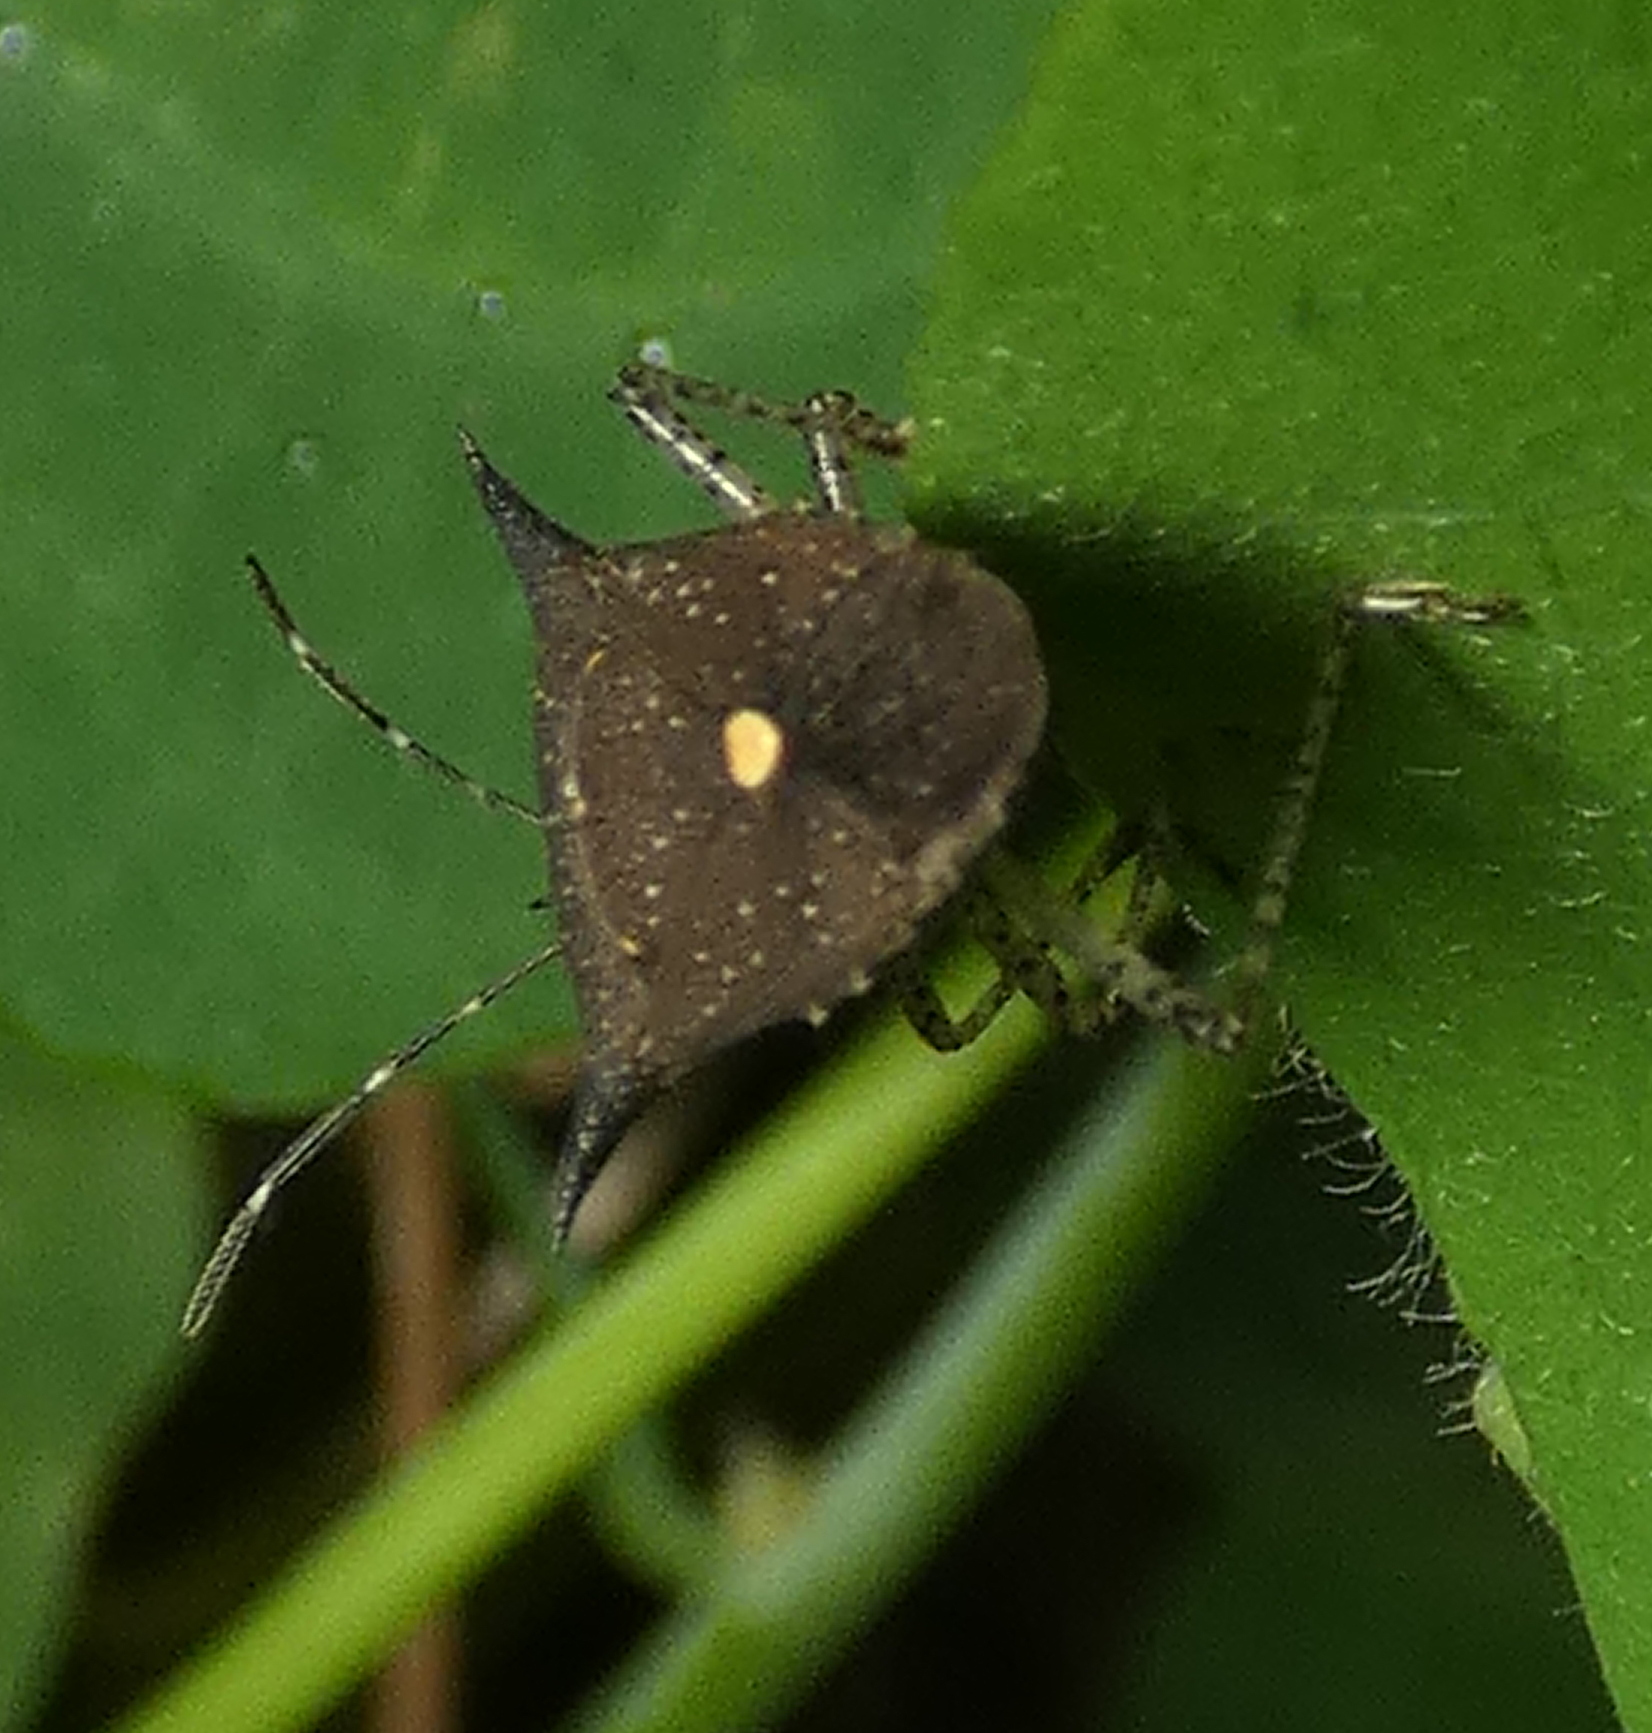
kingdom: Animalia
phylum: Arthropoda
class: Insecta
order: Hemiptera
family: Pentatomidae
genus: Proxys
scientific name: Proxys albopunctulatus
